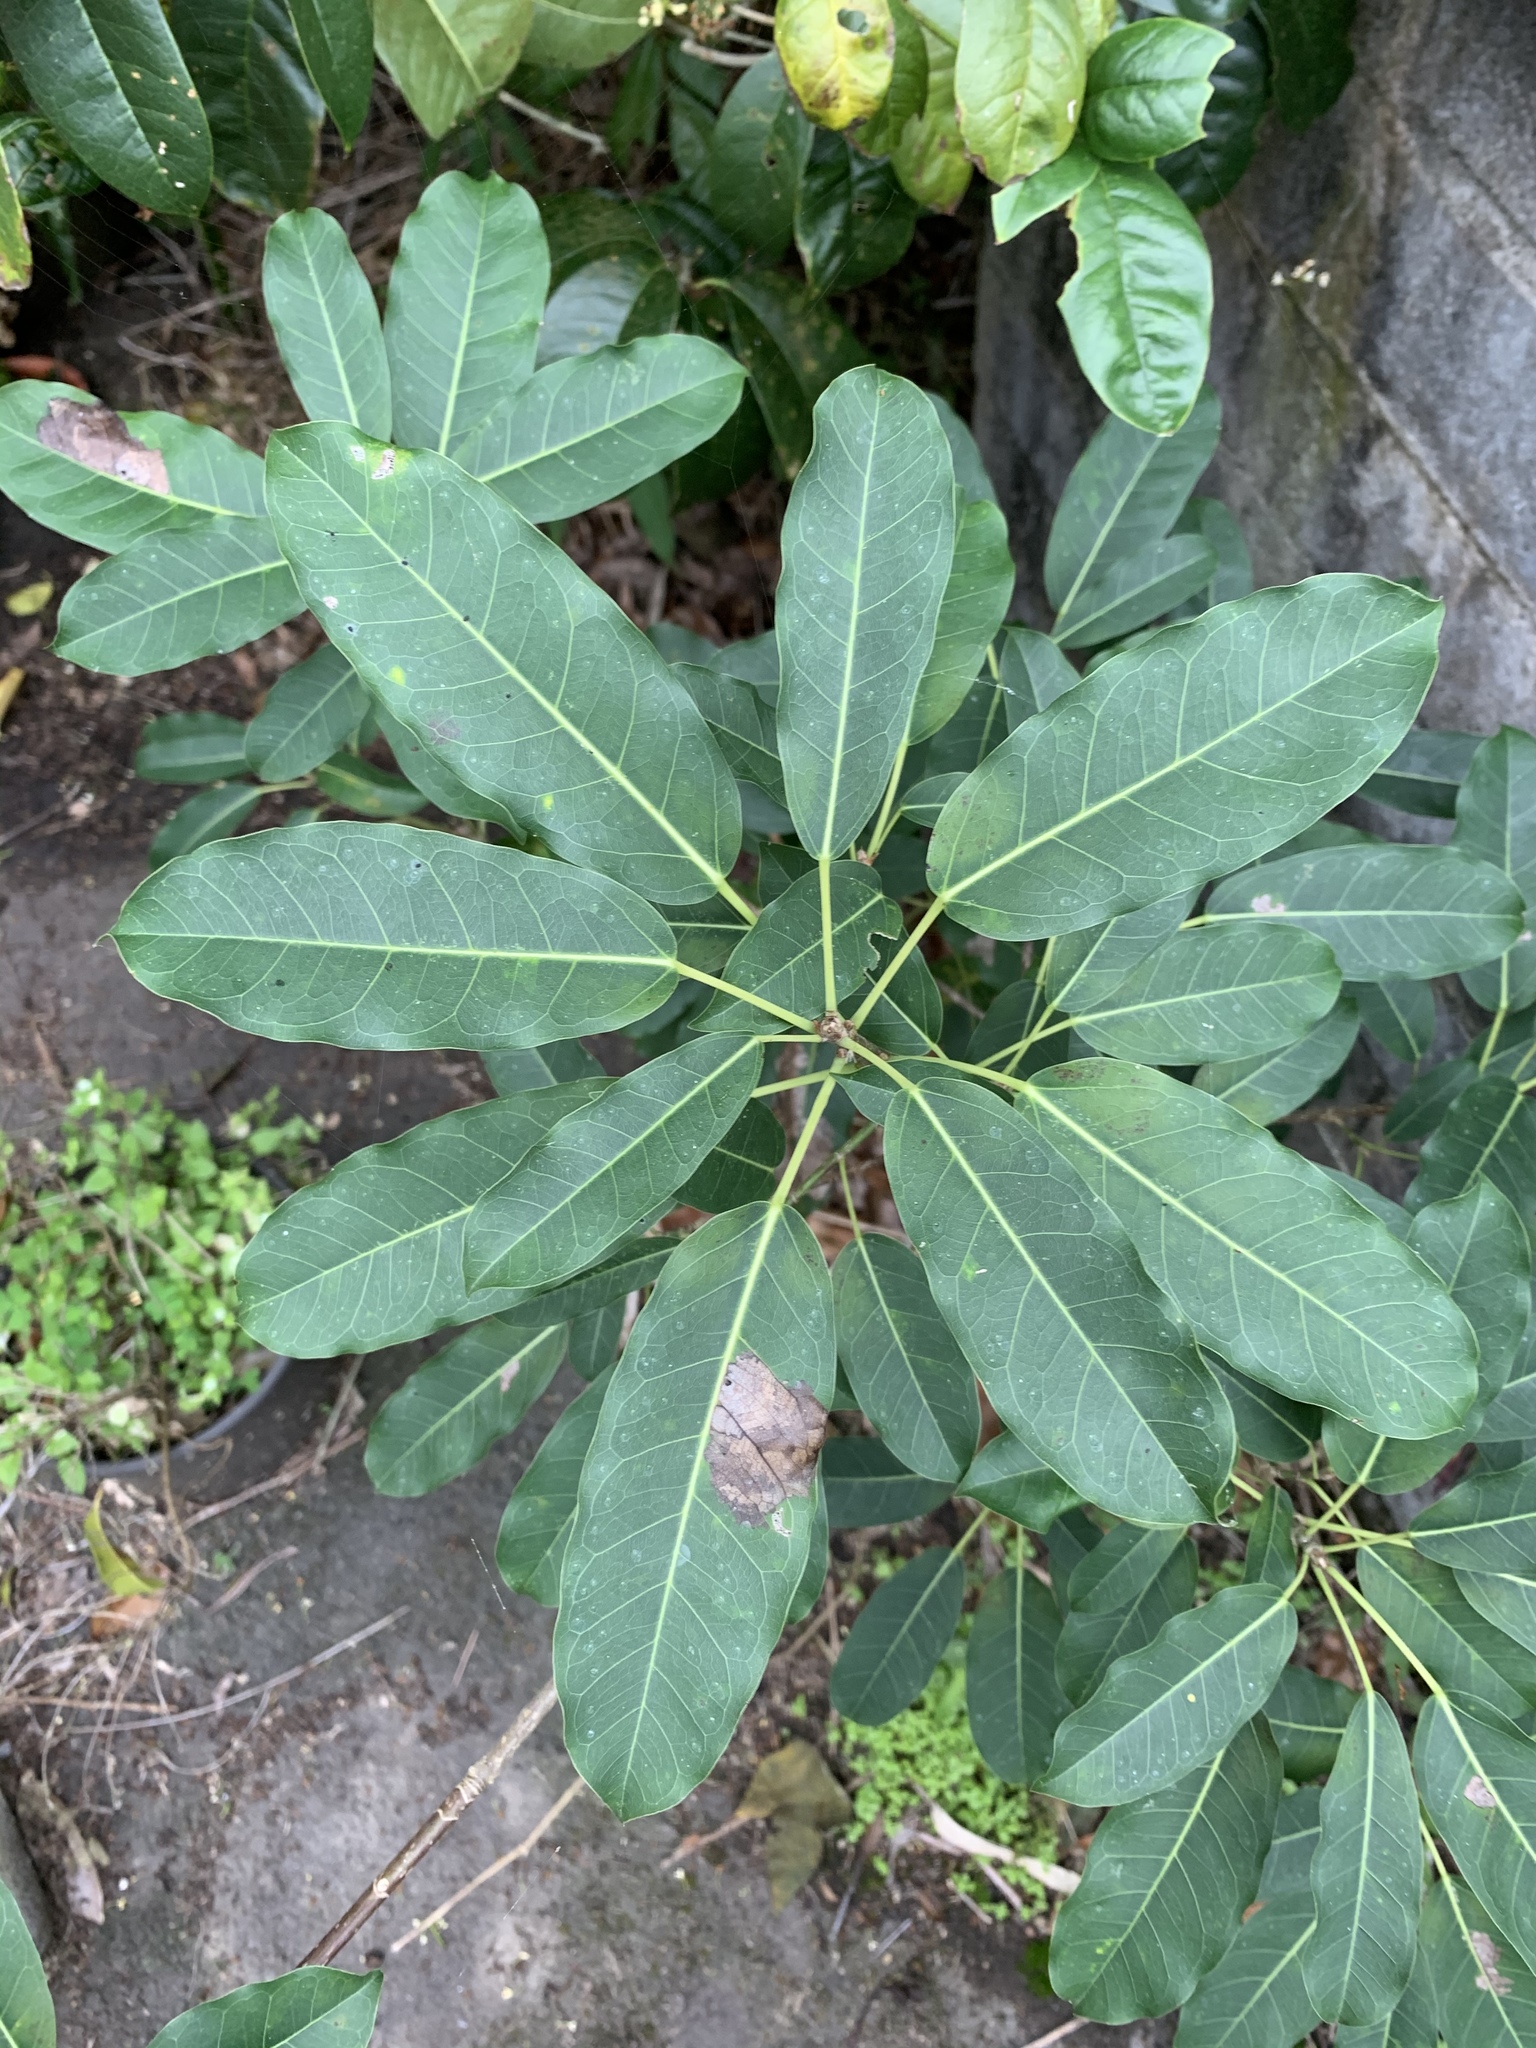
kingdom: Plantae
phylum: Tracheophyta
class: Magnoliopsida
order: Rosales
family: Moraceae
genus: Ficus
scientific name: Ficus subpisocarpa
